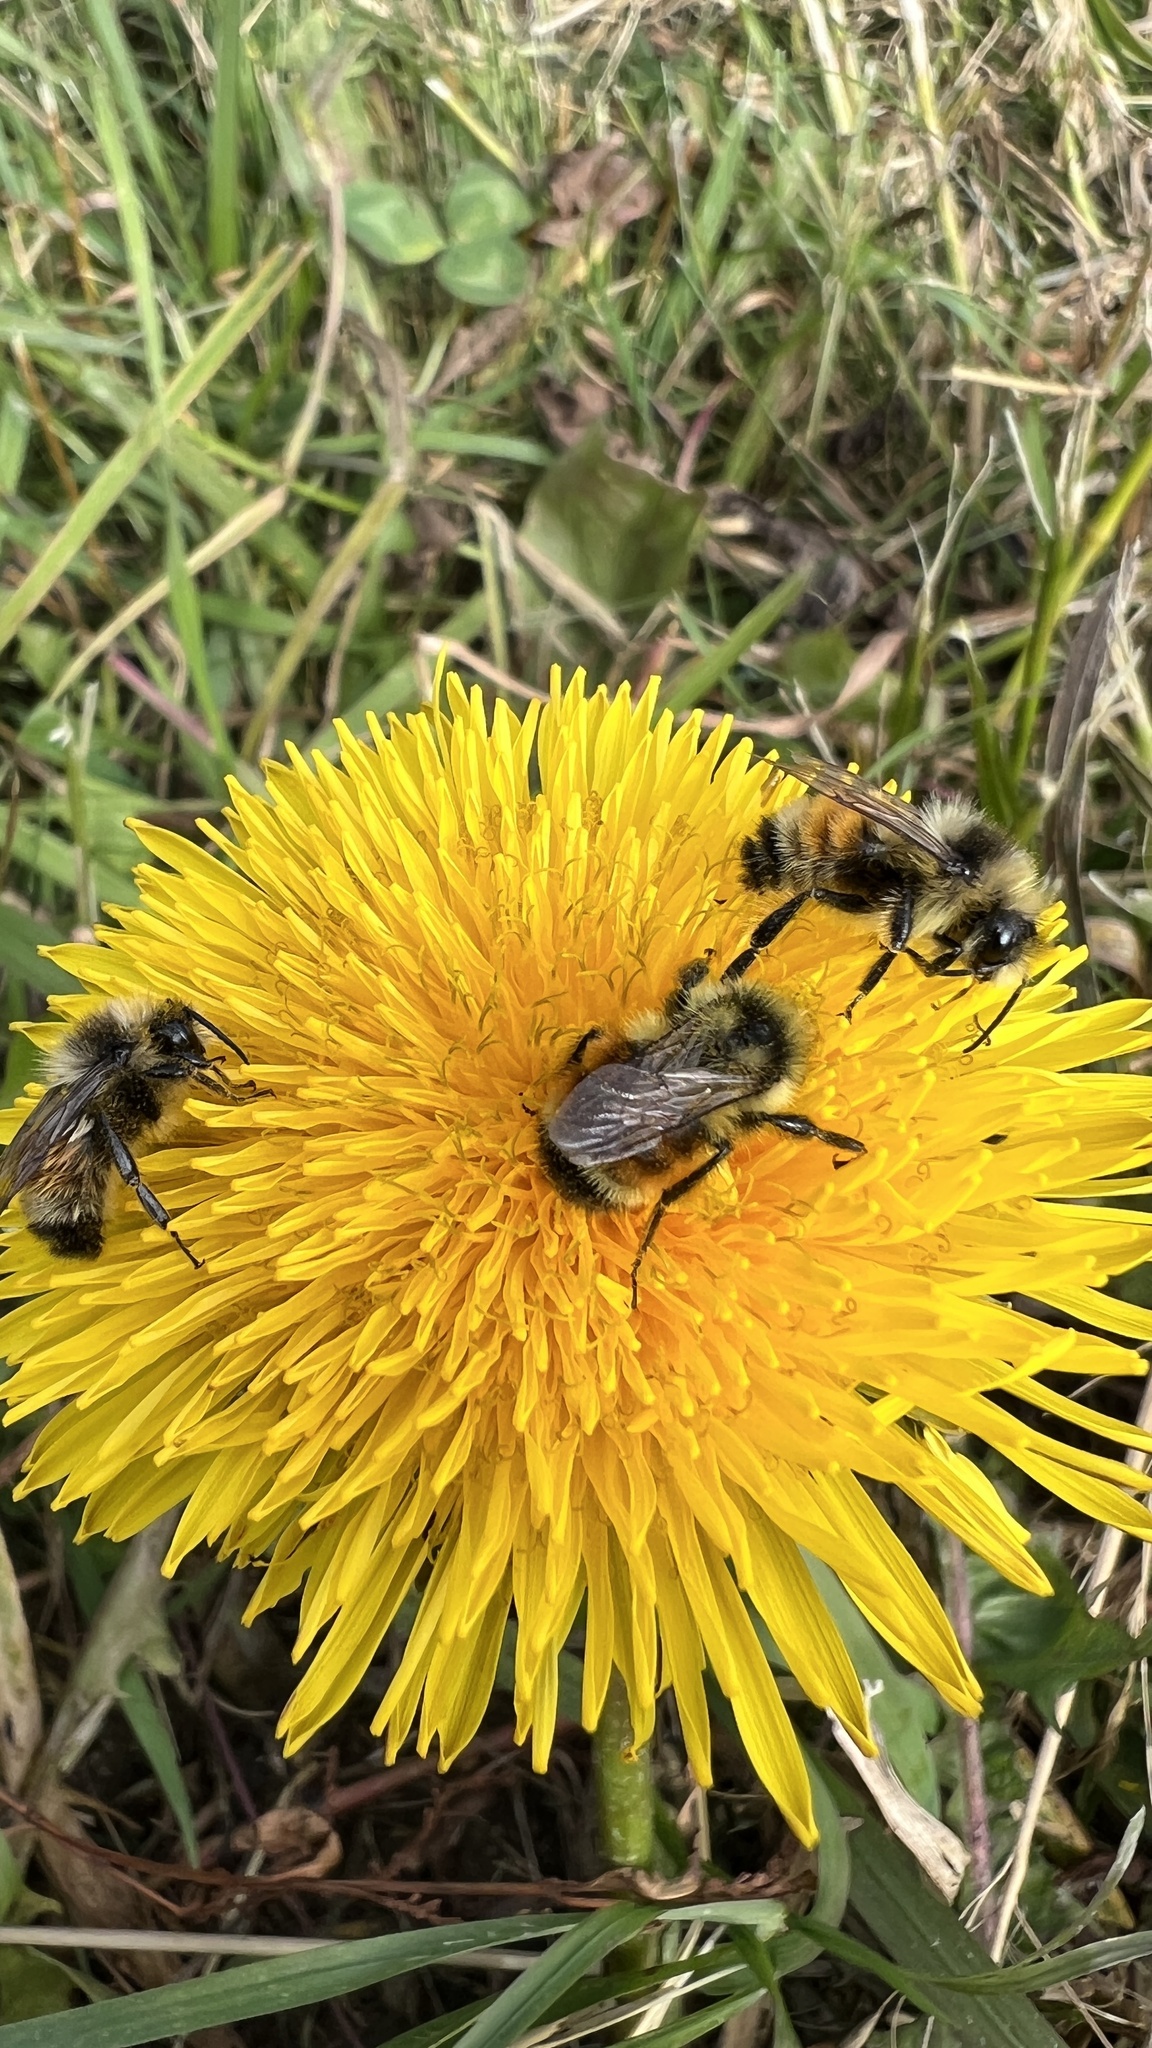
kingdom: Animalia
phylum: Arthropoda
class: Insecta
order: Hymenoptera
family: Apidae
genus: Bombus
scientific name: Bombus ternarius
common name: Tri-colored bumble bee
